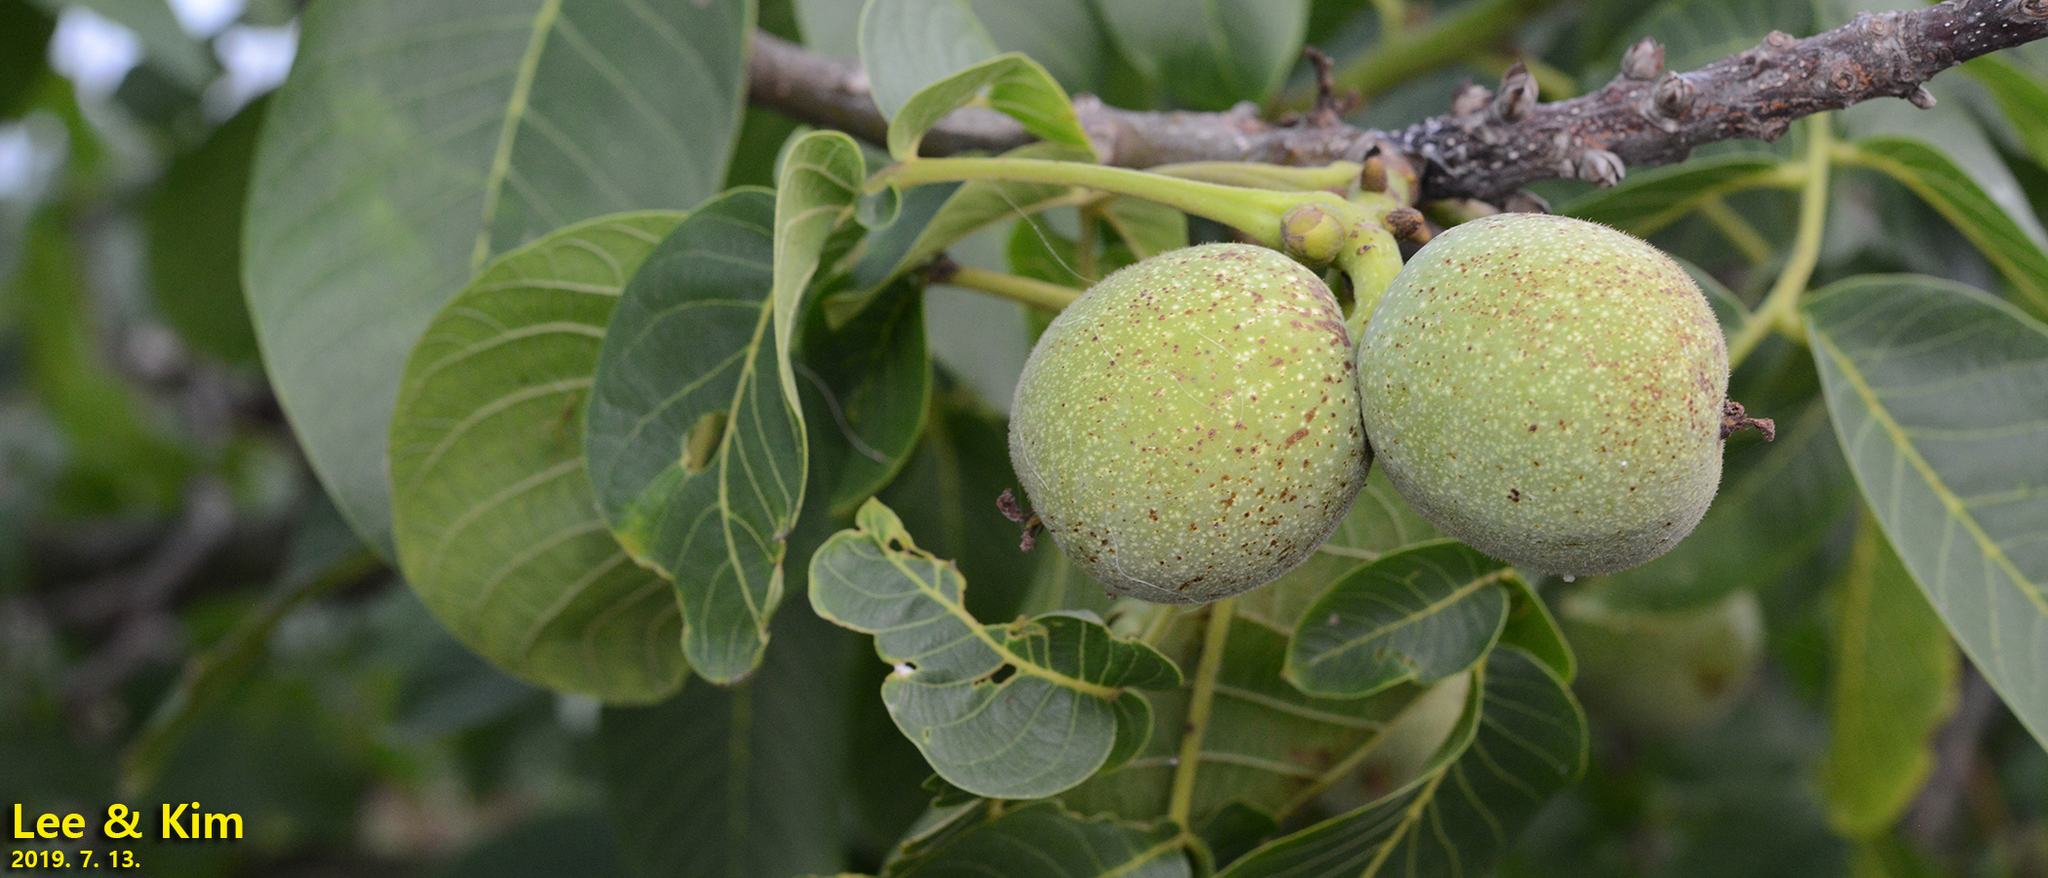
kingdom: Plantae
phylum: Tracheophyta
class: Magnoliopsida
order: Fagales
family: Juglandaceae
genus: Juglans
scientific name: Juglans regia
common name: Walnut
